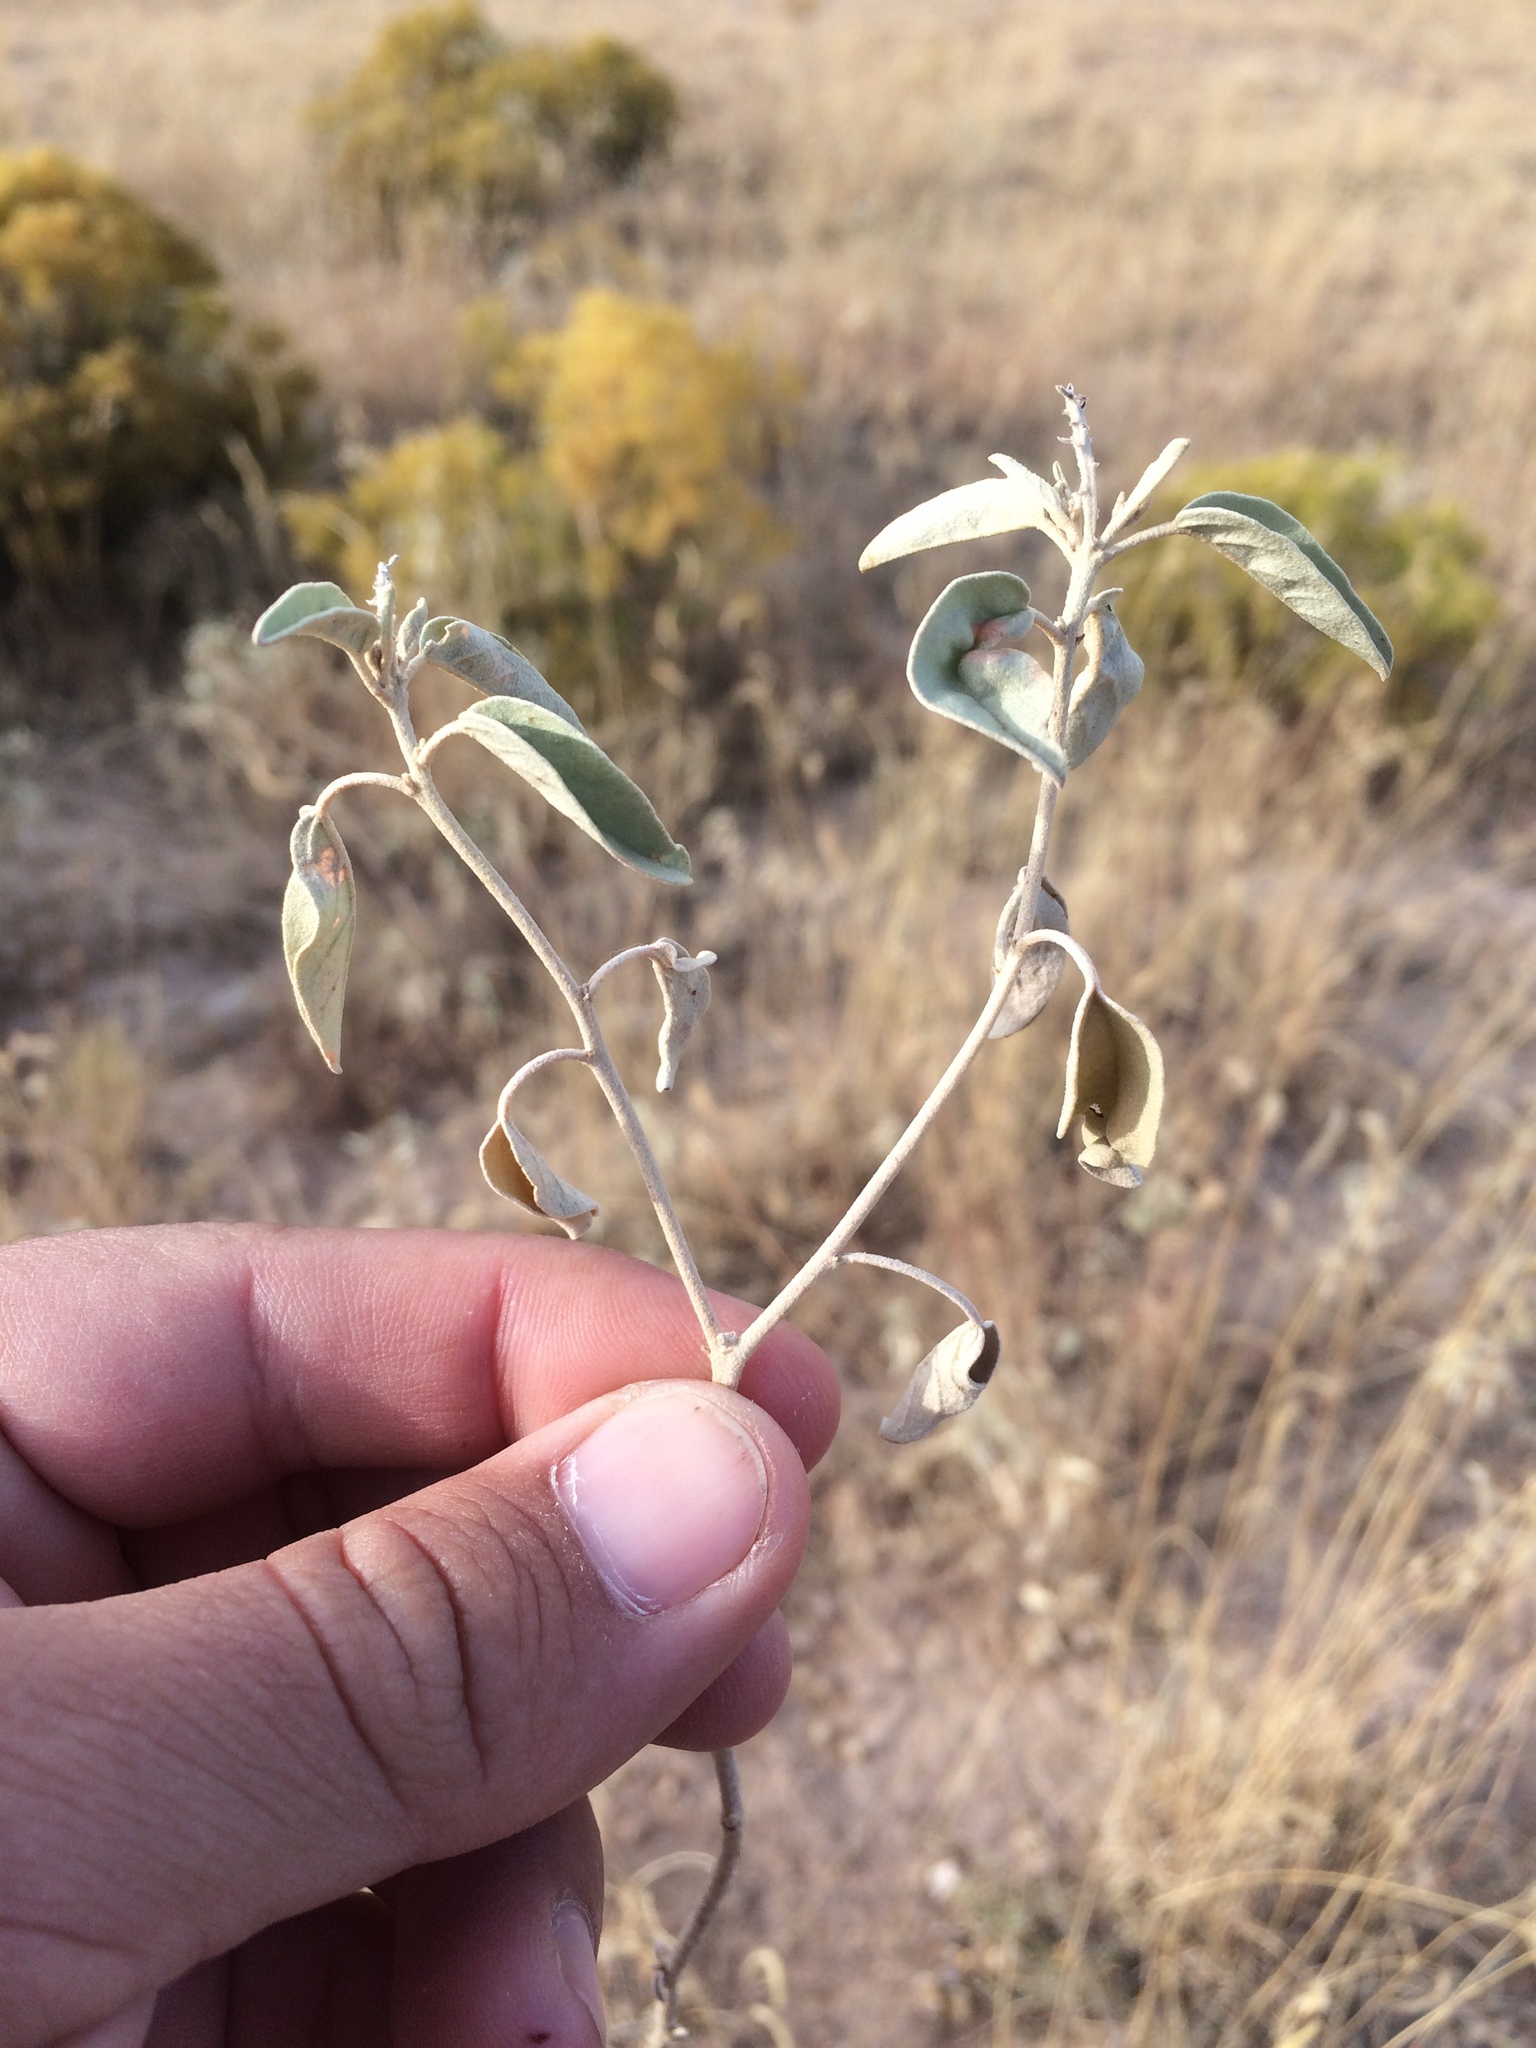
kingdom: Plantae
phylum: Tracheophyta
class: Magnoliopsida
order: Malpighiales
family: Euphorbiaceae
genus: Croton
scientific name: Croton pottsii
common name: Leatherweed
